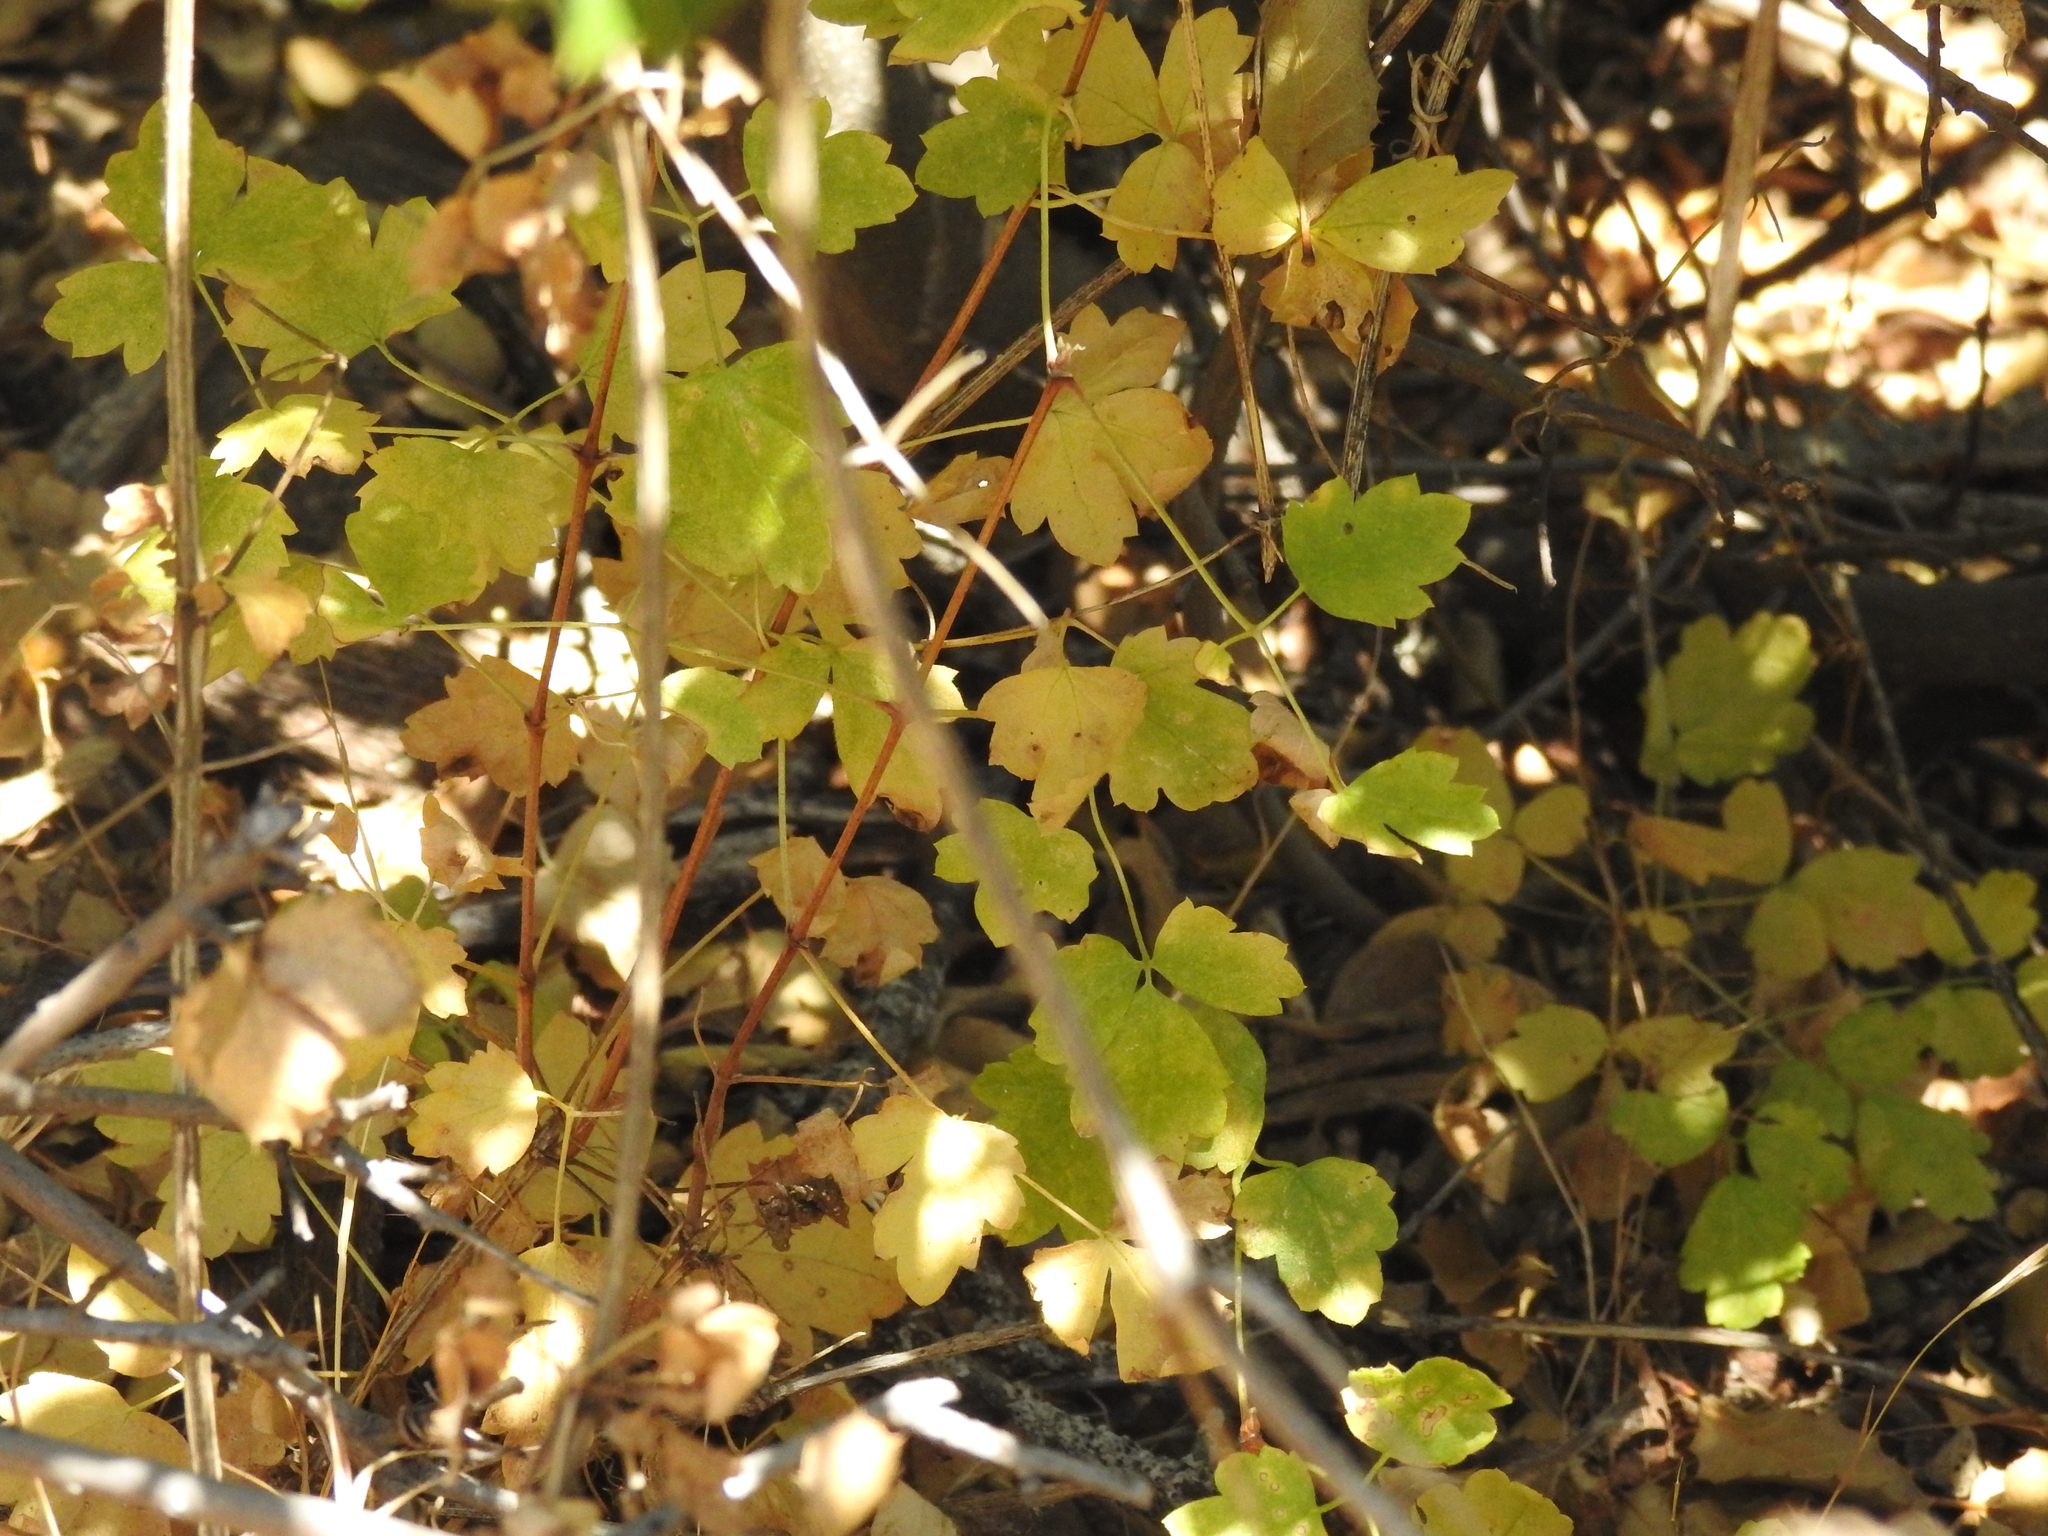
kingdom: Plantae
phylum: Tracheophyta
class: Magnoliopsida
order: Ranunculales
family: Ranunculaceae
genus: Clematis
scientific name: Clematis lasiantha
